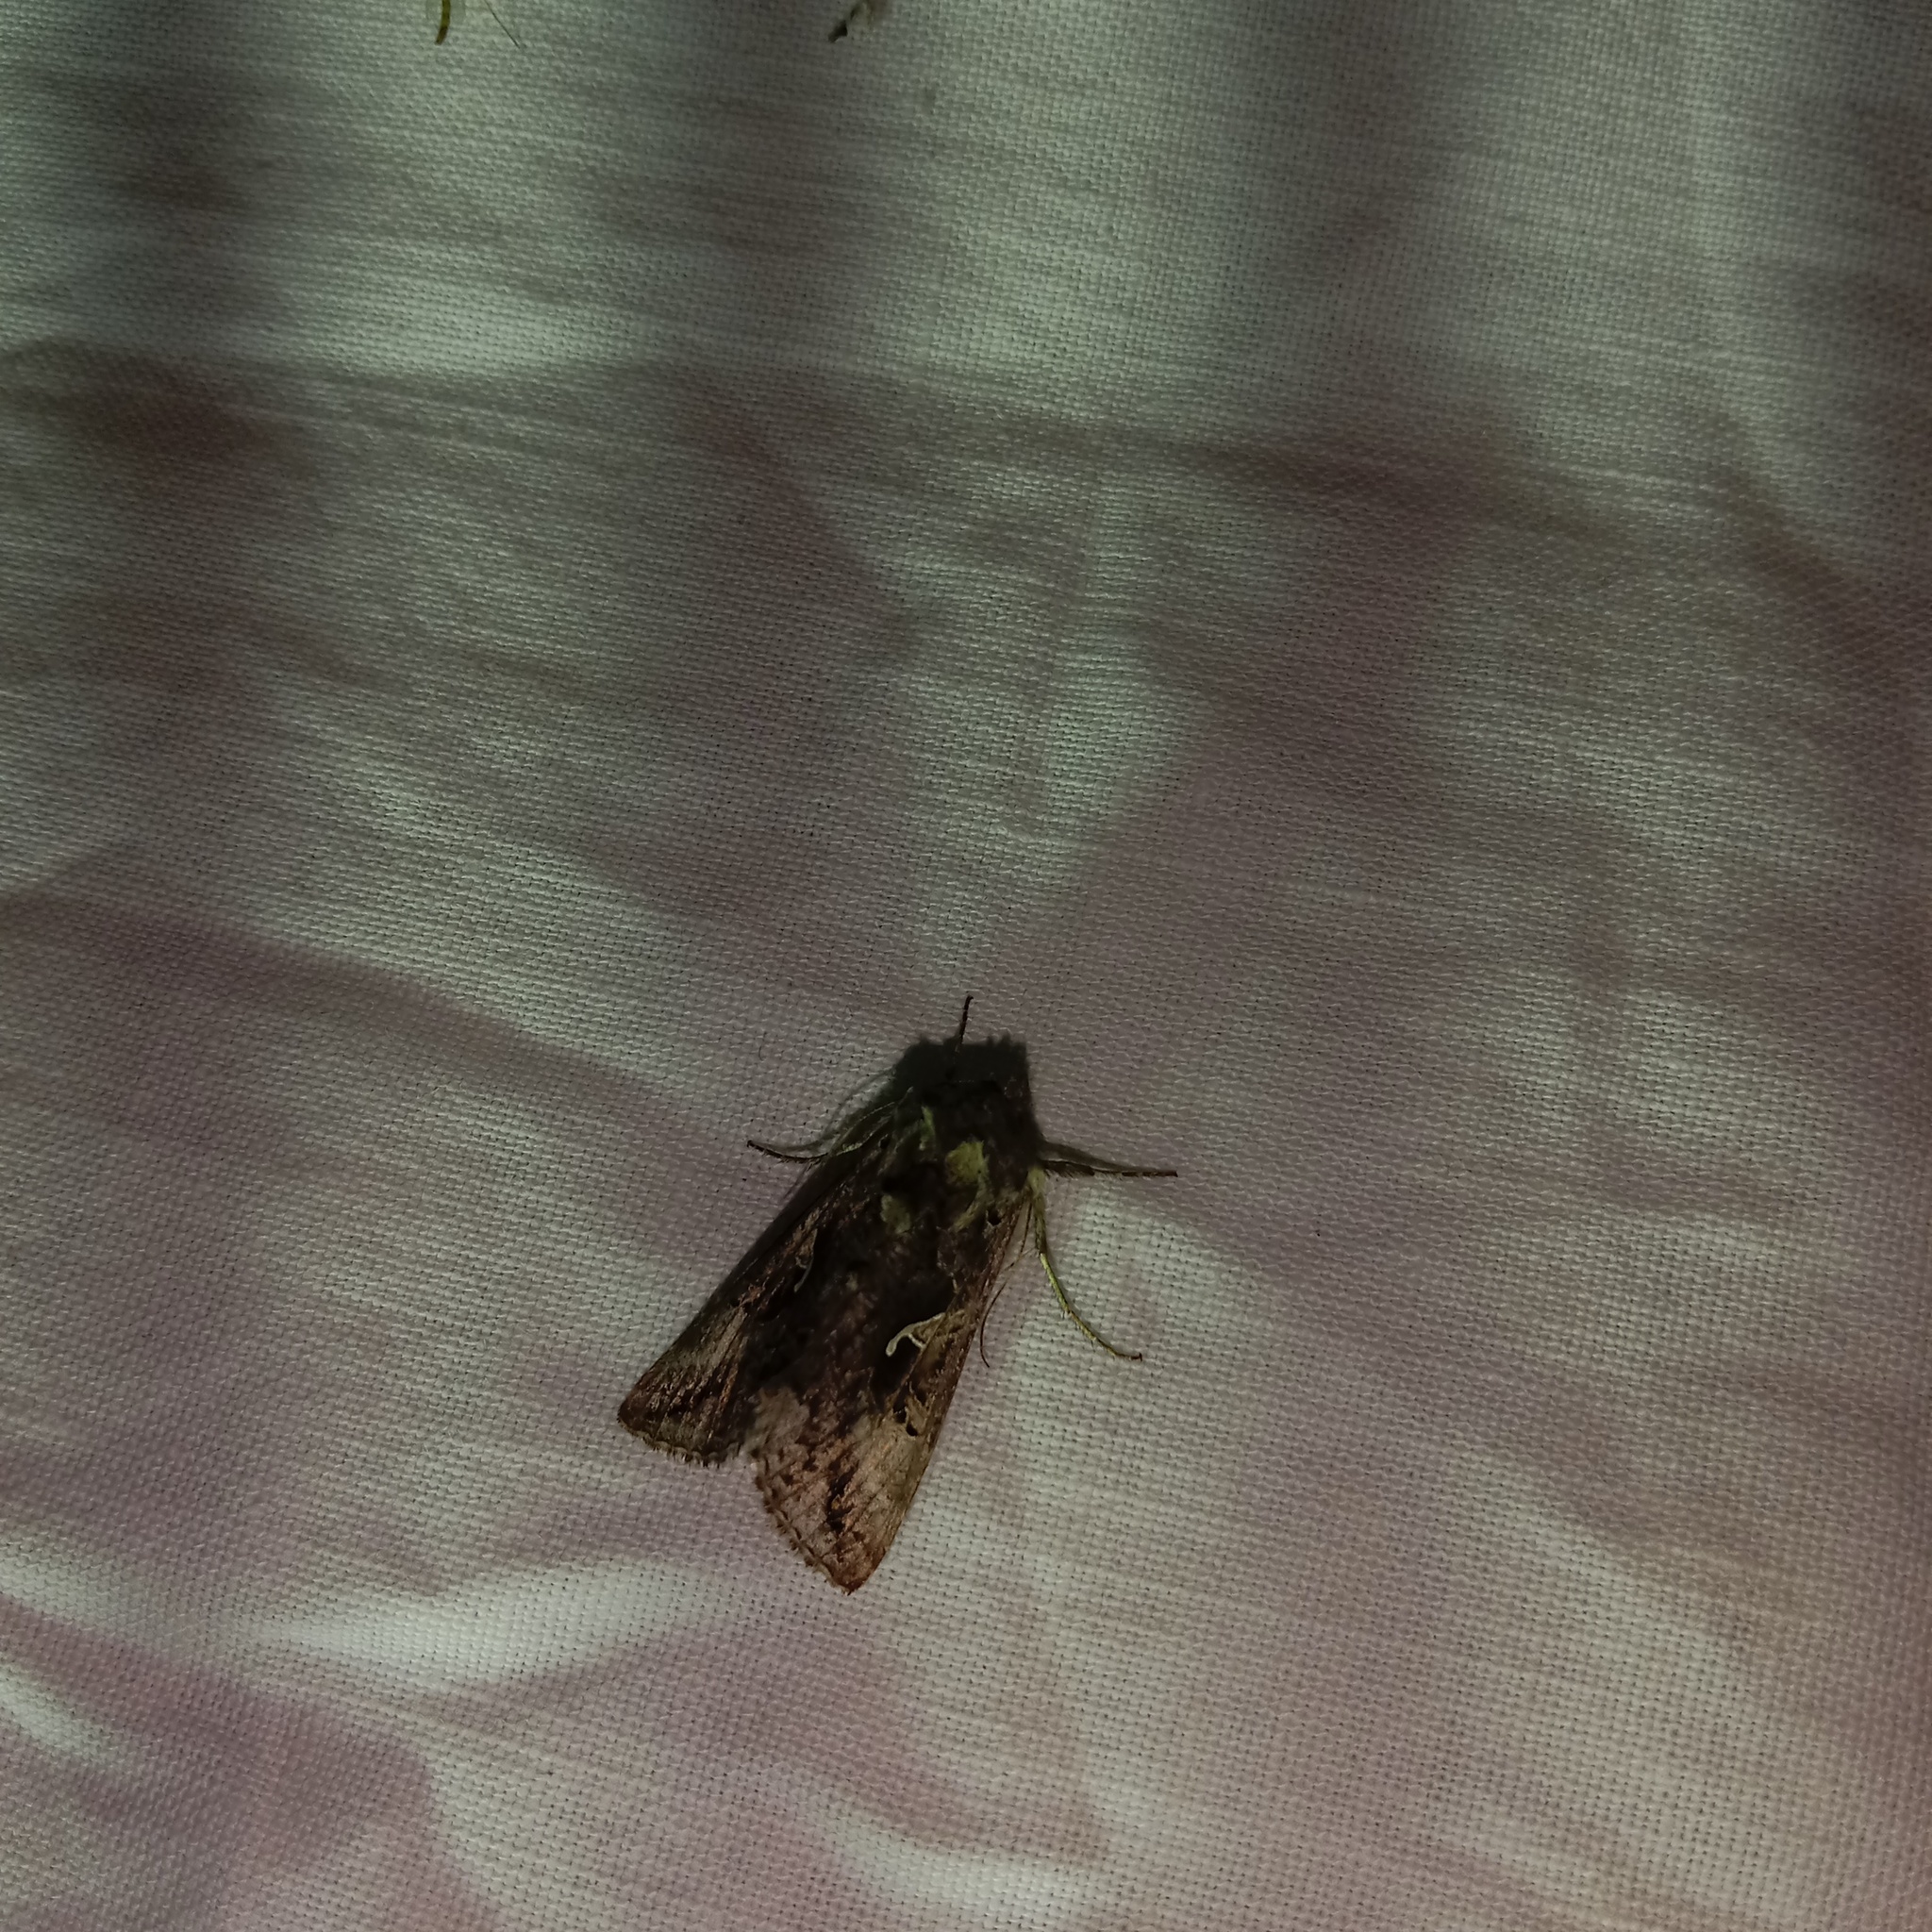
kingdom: Animalia
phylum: Arthropoda
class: Insecta
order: Lepidoptera
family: Noctuidae
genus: Autographa
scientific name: Autographa gamma
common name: Silver y
